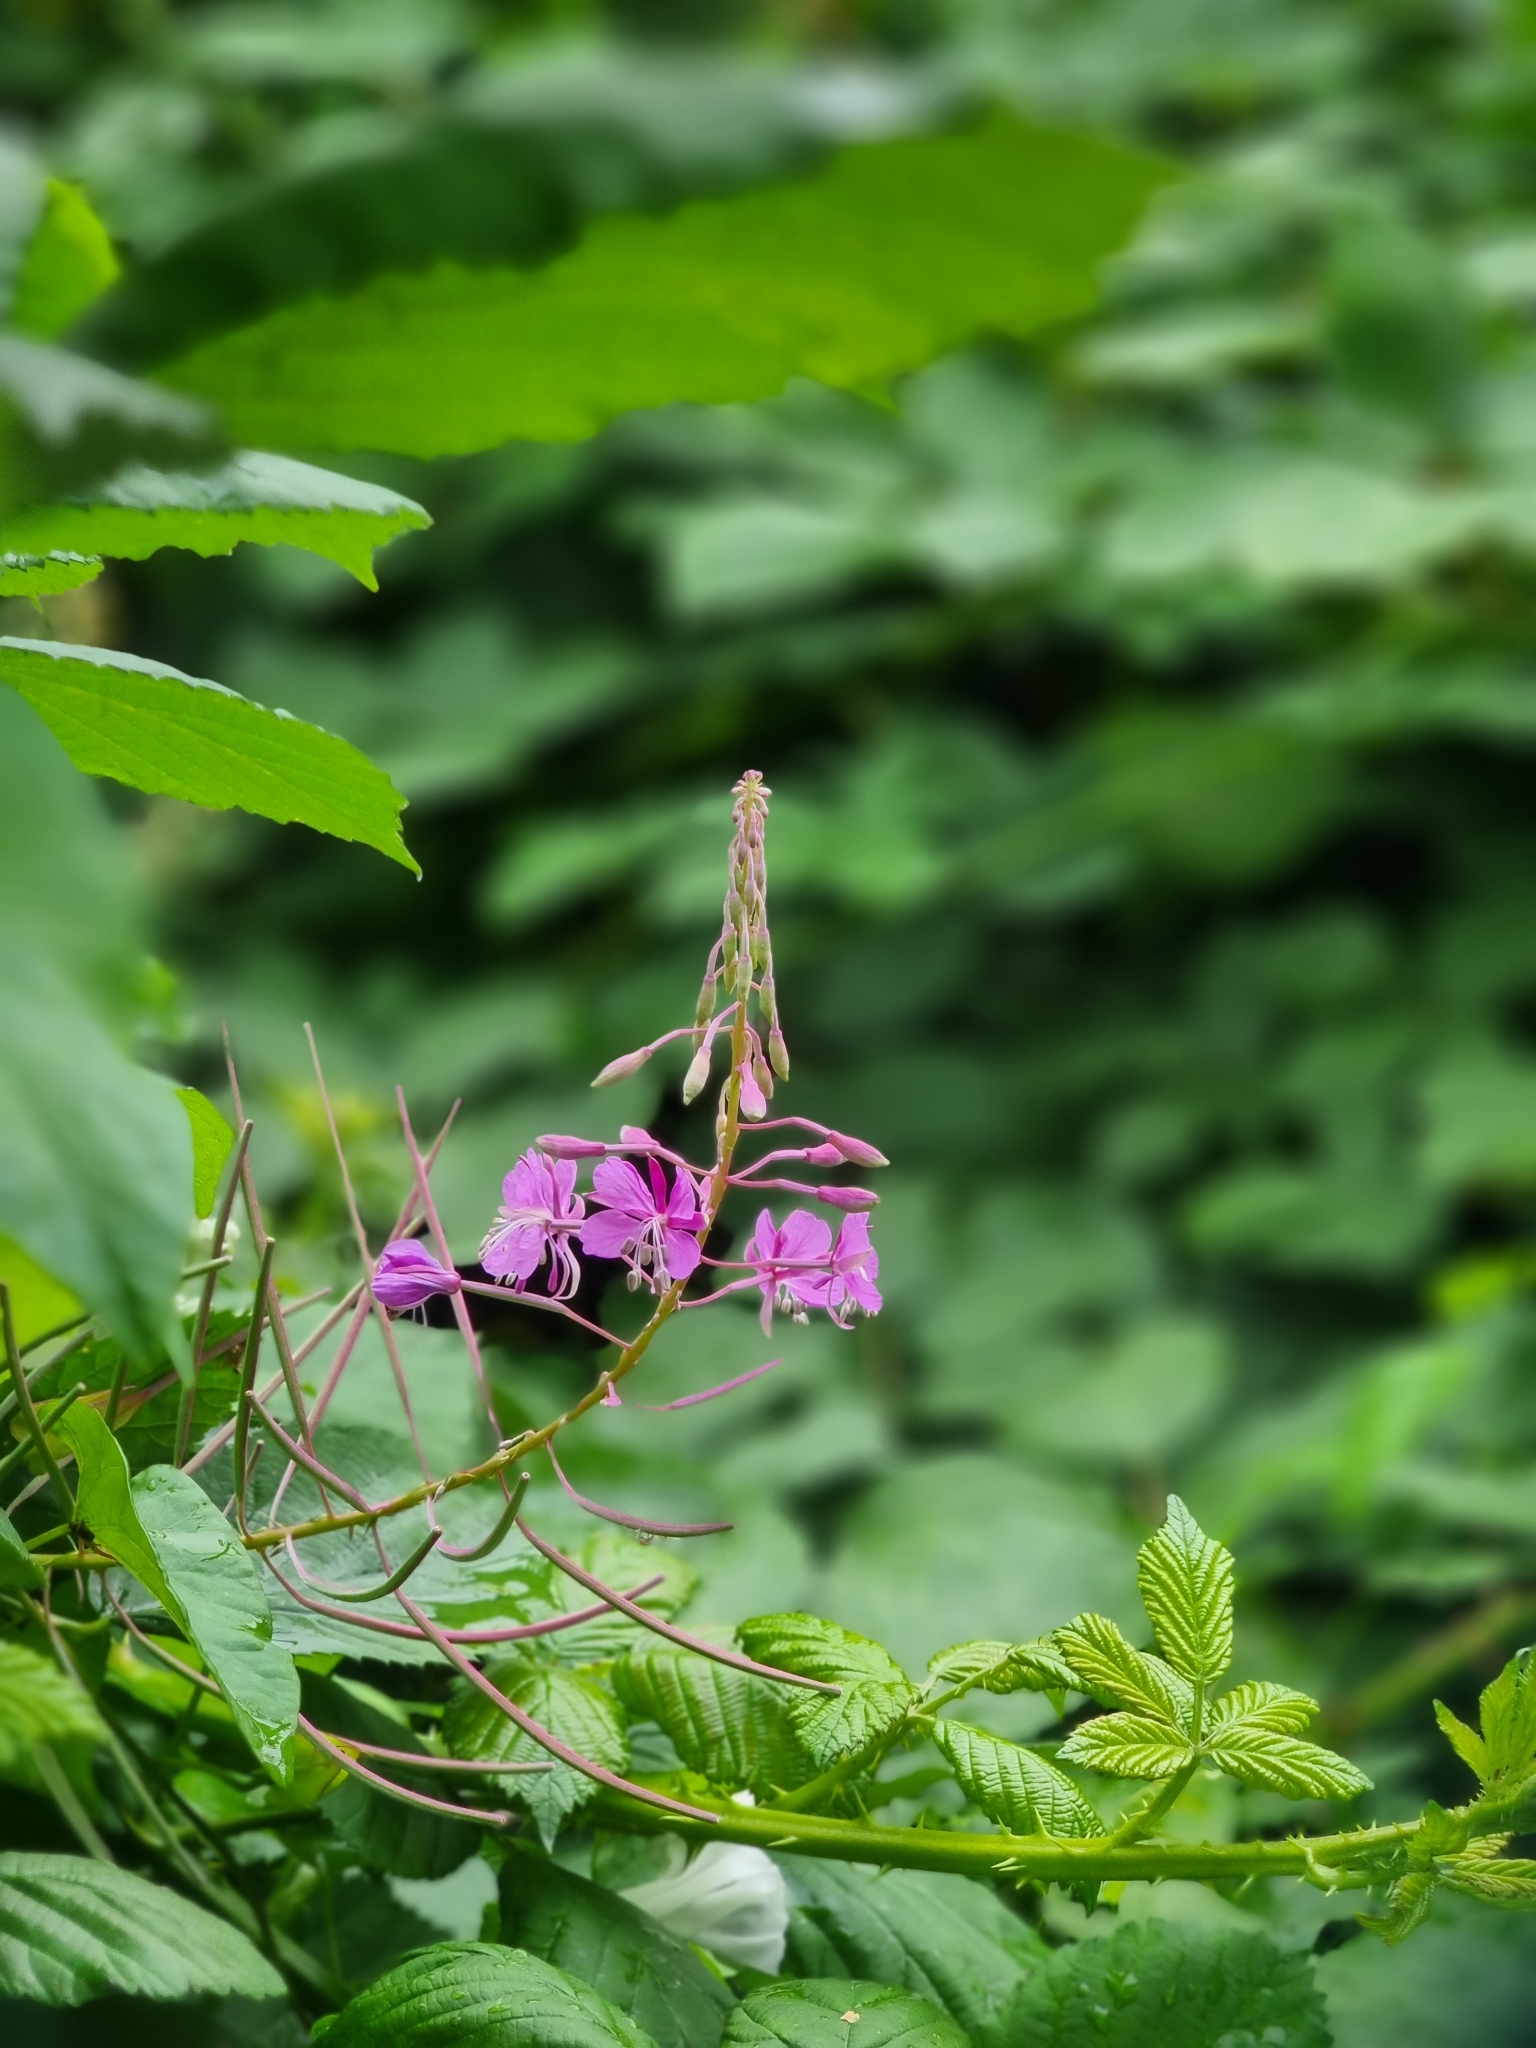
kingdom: Plantae
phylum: Tracheophyta
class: Magnoliopsida
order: Myrtales
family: Onagraceae
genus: Chamaenerion
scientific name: Chamaenerion angustifolium
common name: Fireweed
